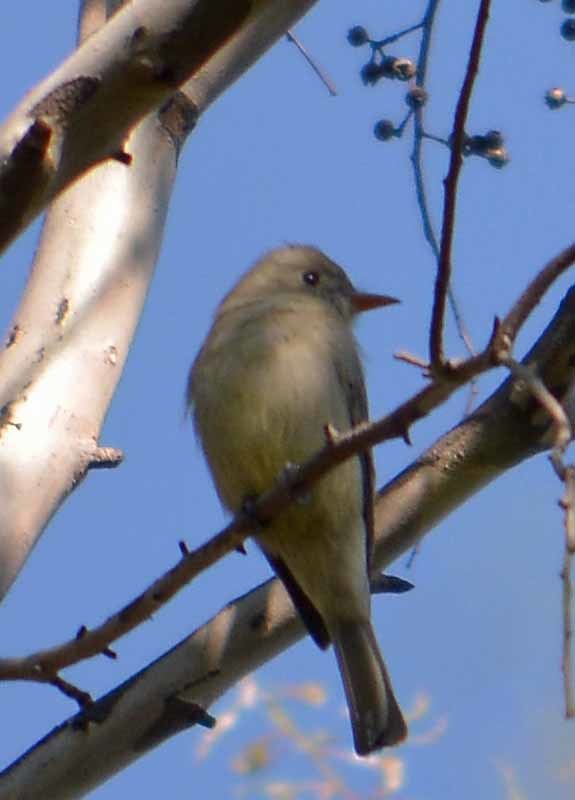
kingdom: Animalia
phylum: Chordata
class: Aves
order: Passeriformes
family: Tyrannidae
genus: Contopus
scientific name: Contopus pertinax
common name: Greater pewee
